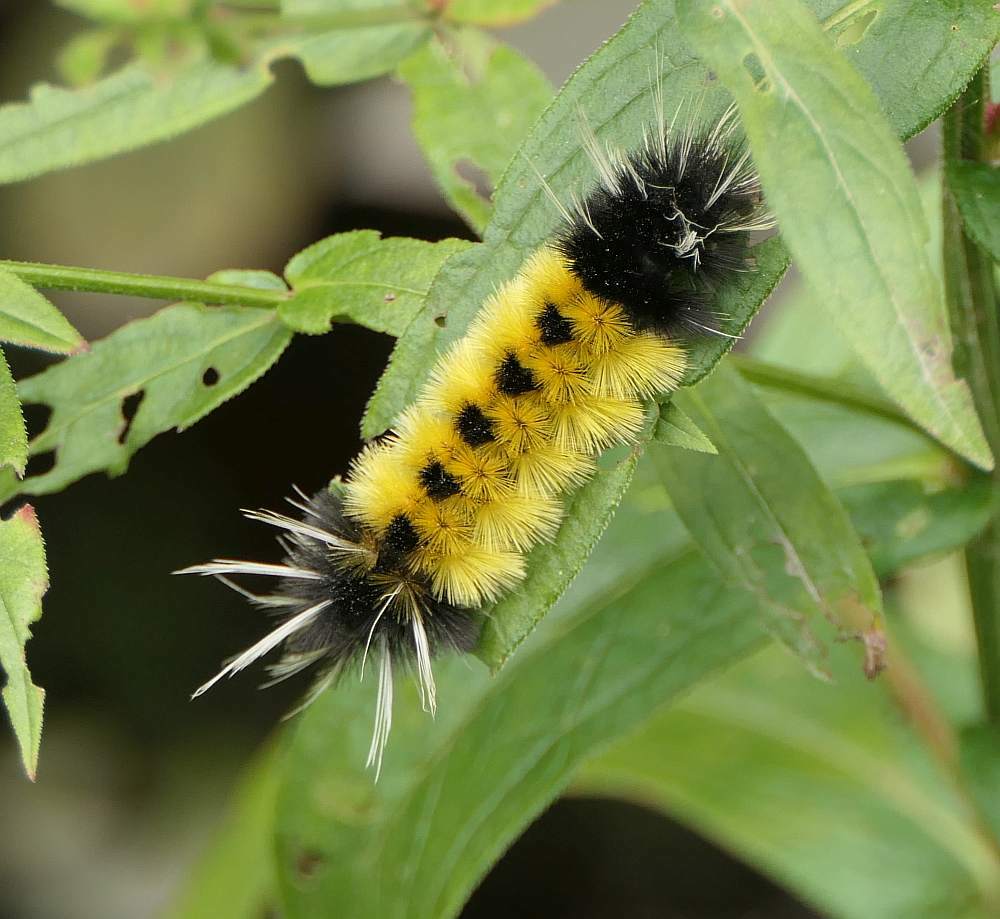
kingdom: Animalia
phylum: Arthropoda
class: Insecta
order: Lepidoptera
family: Erebidae
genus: Lophocampa
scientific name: Lophocampa maculata
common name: Spotted tussock moth
